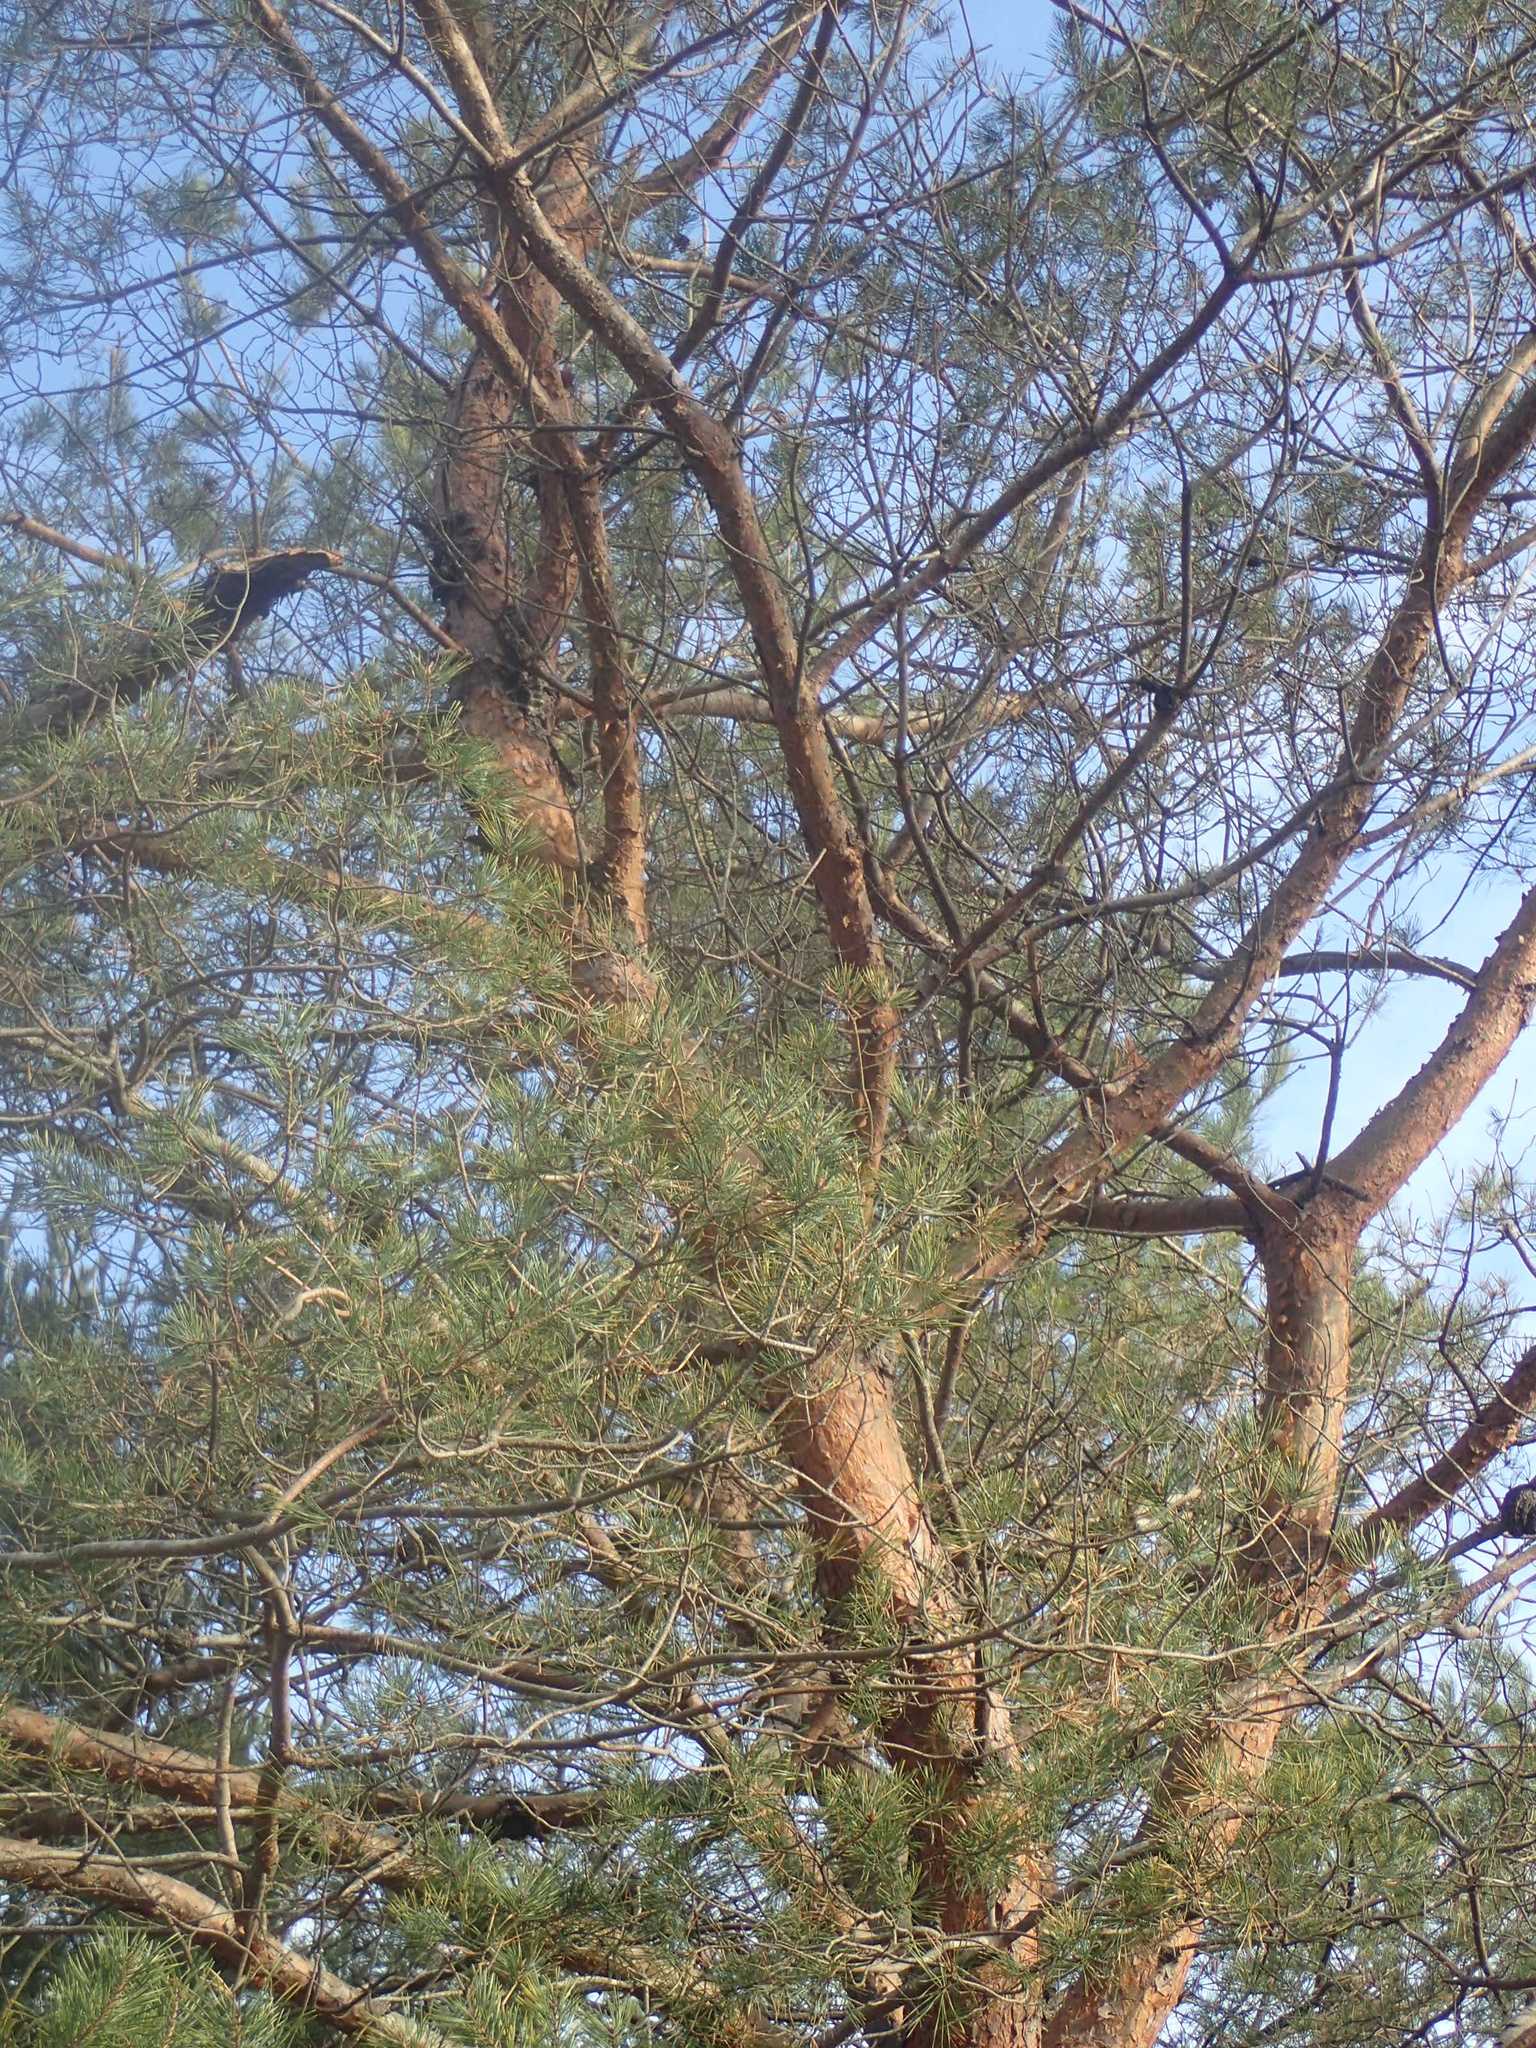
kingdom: Plantae
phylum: Tracheophyta
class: Pinopsida
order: Pinales
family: Pinaceae
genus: Pinus
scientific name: Pinus sylvestris
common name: Scots pine
